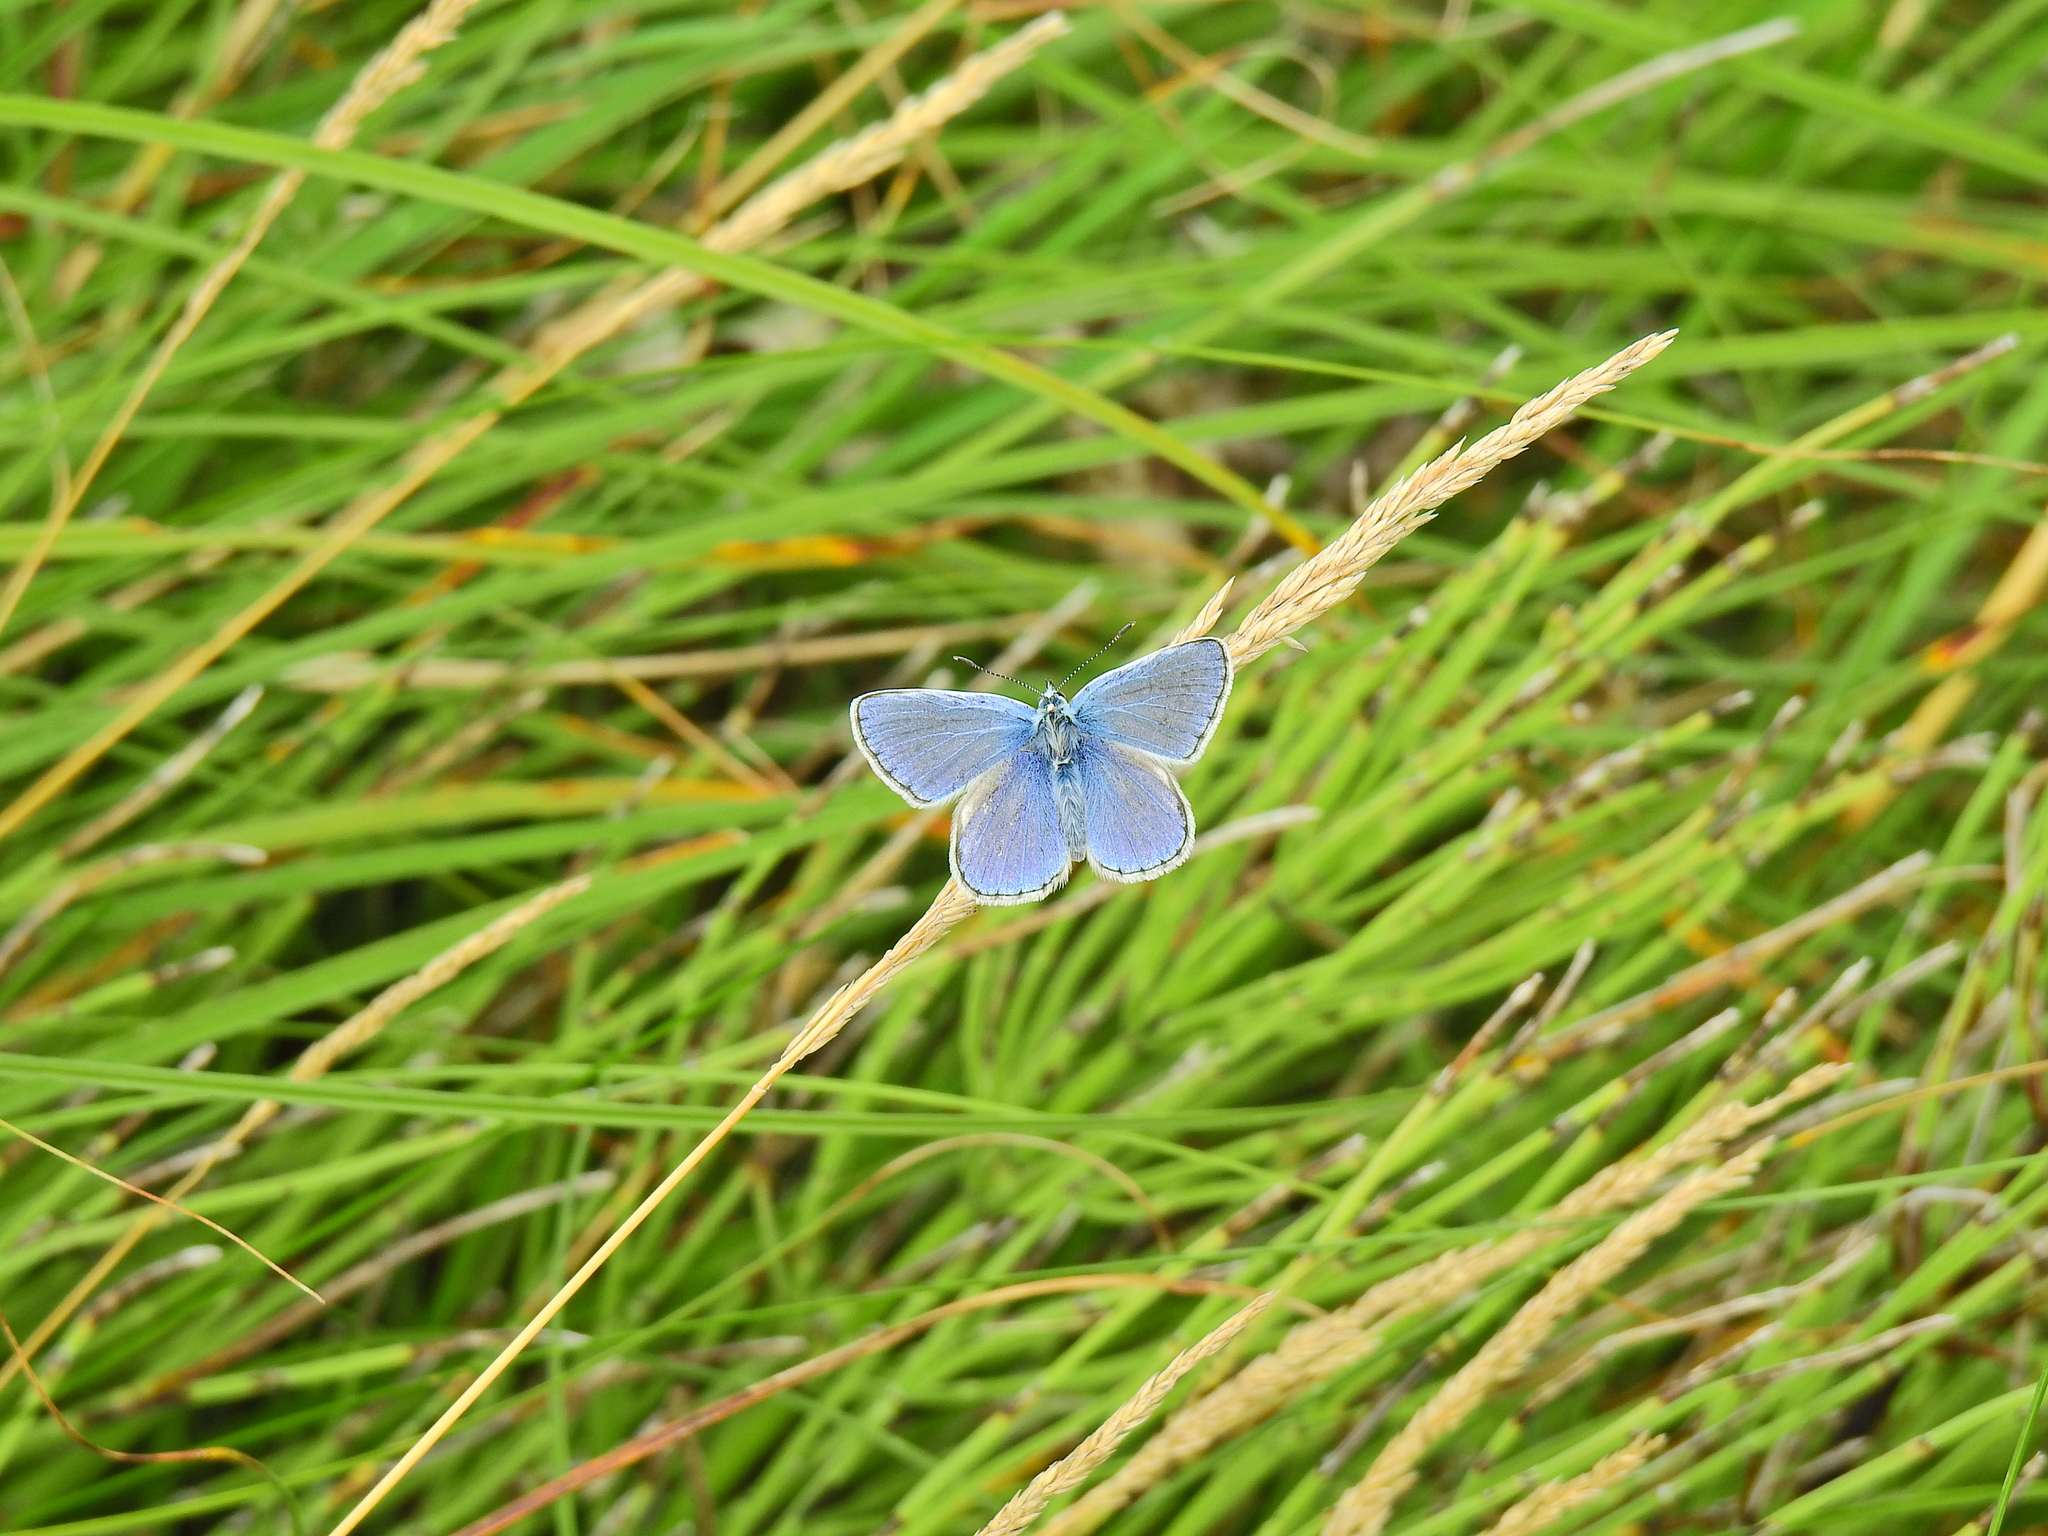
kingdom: Animalia
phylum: Arthropoda
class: Insecta
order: Lepidoptera
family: Lycaenidae
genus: Polyommatus
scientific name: Polyommatus icarus
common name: Common blue
